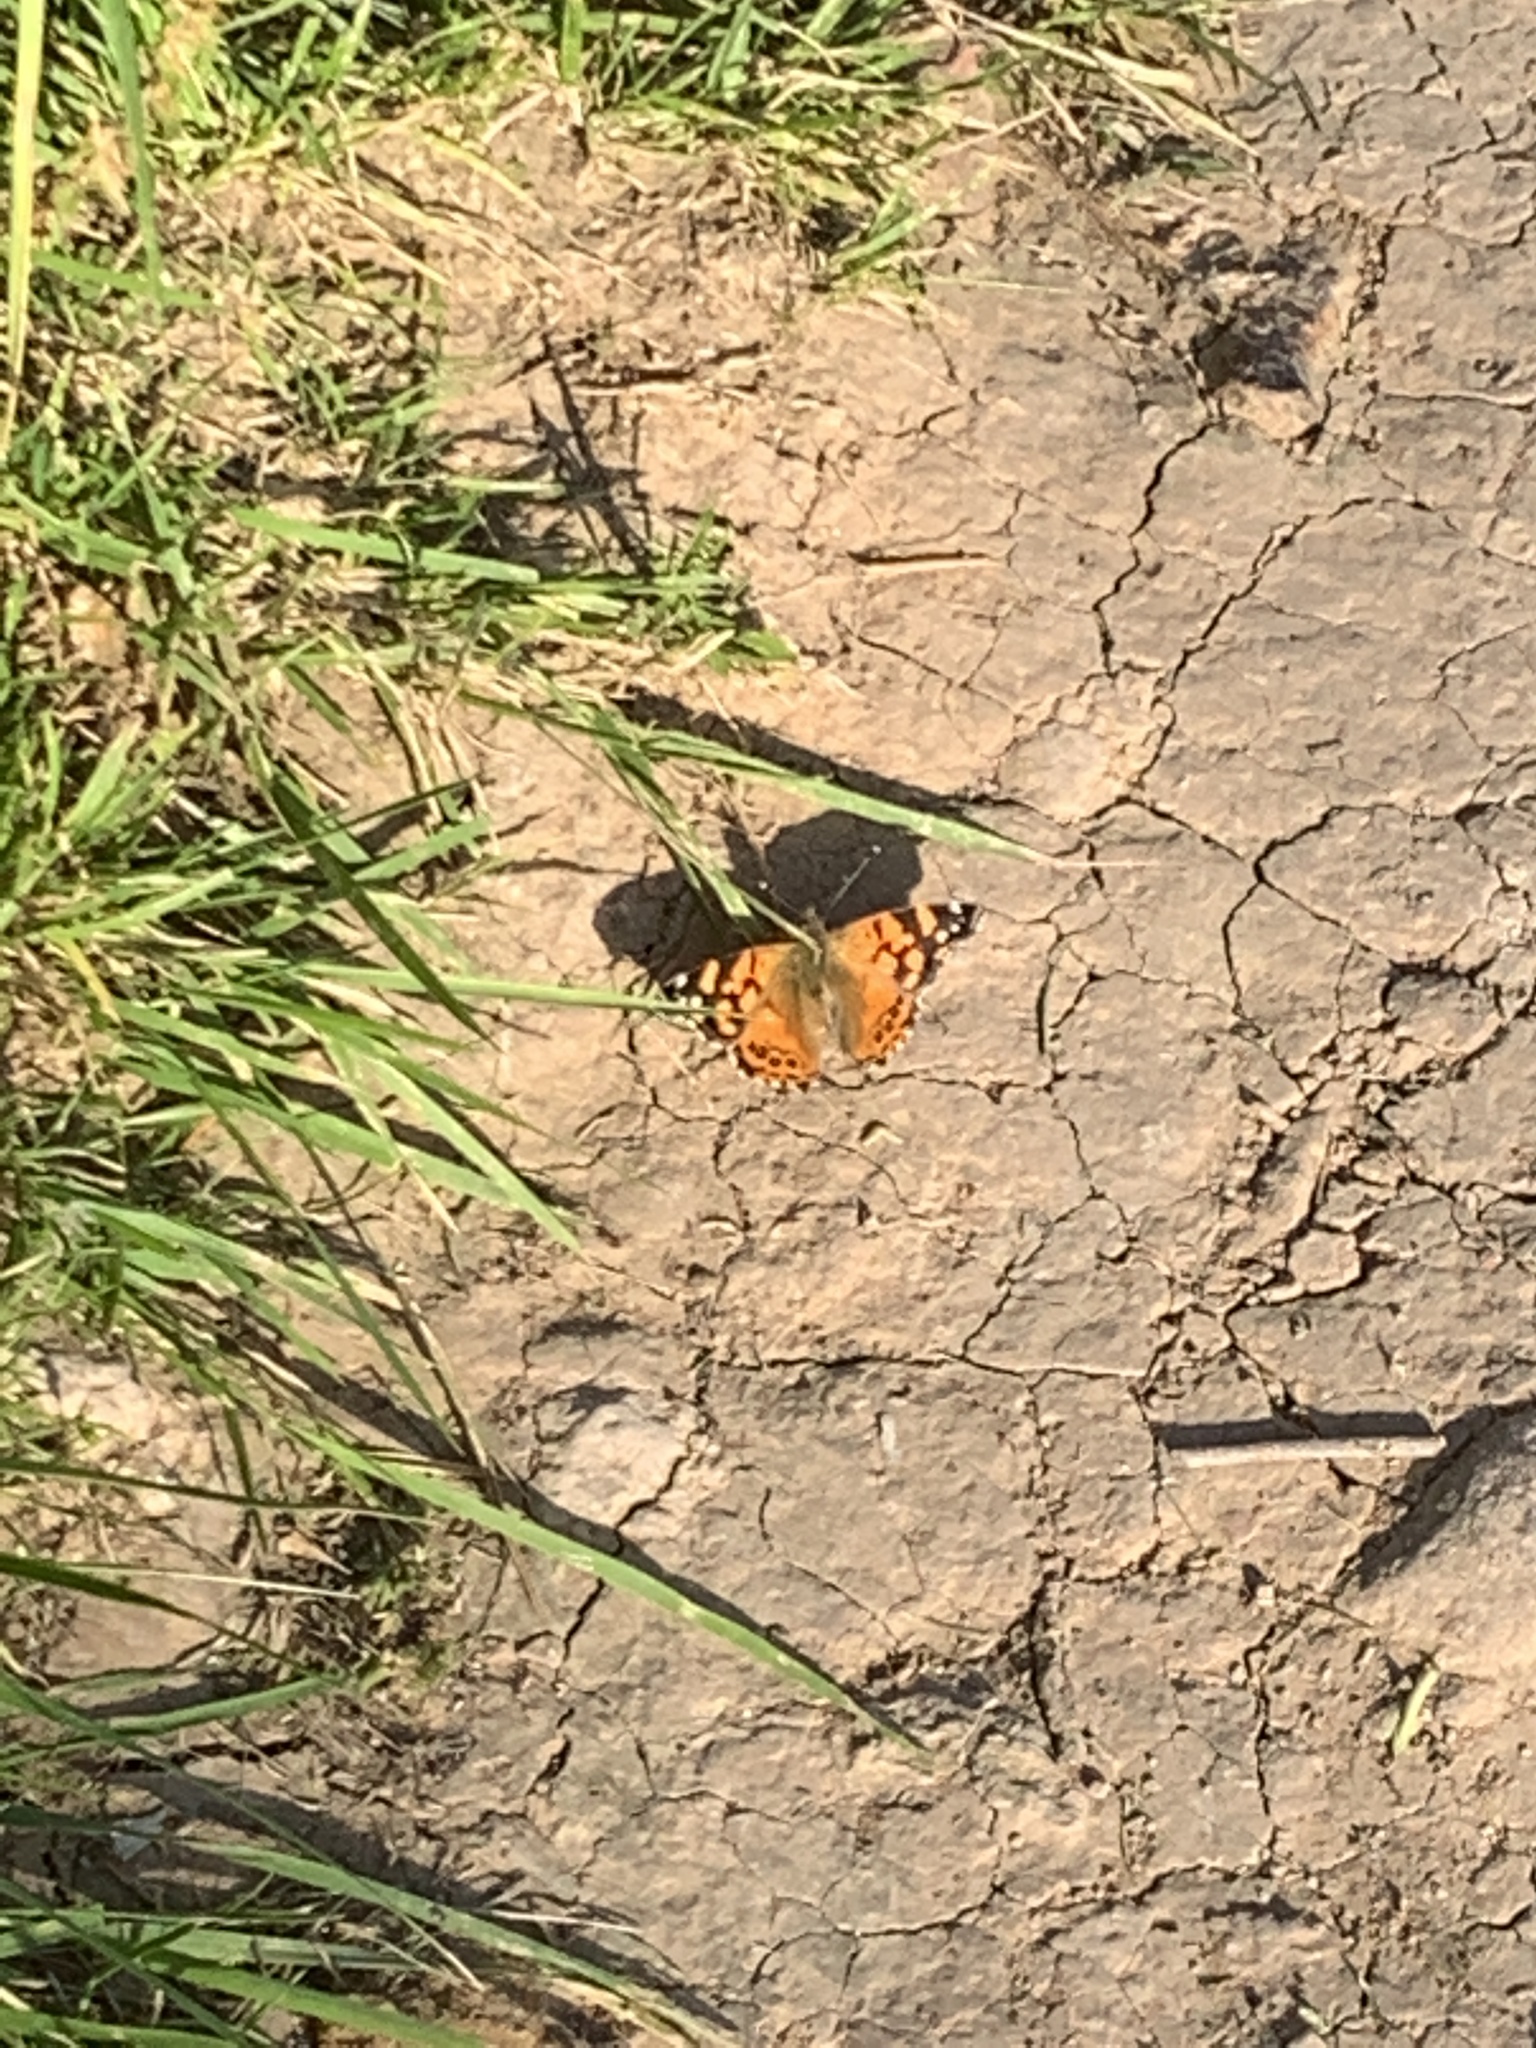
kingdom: Animalia
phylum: Arthropoda
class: Insecta
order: Lepidoptera
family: Nymphalidae
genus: Vanessa
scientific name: Vanessa carye
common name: Subtropical lady
